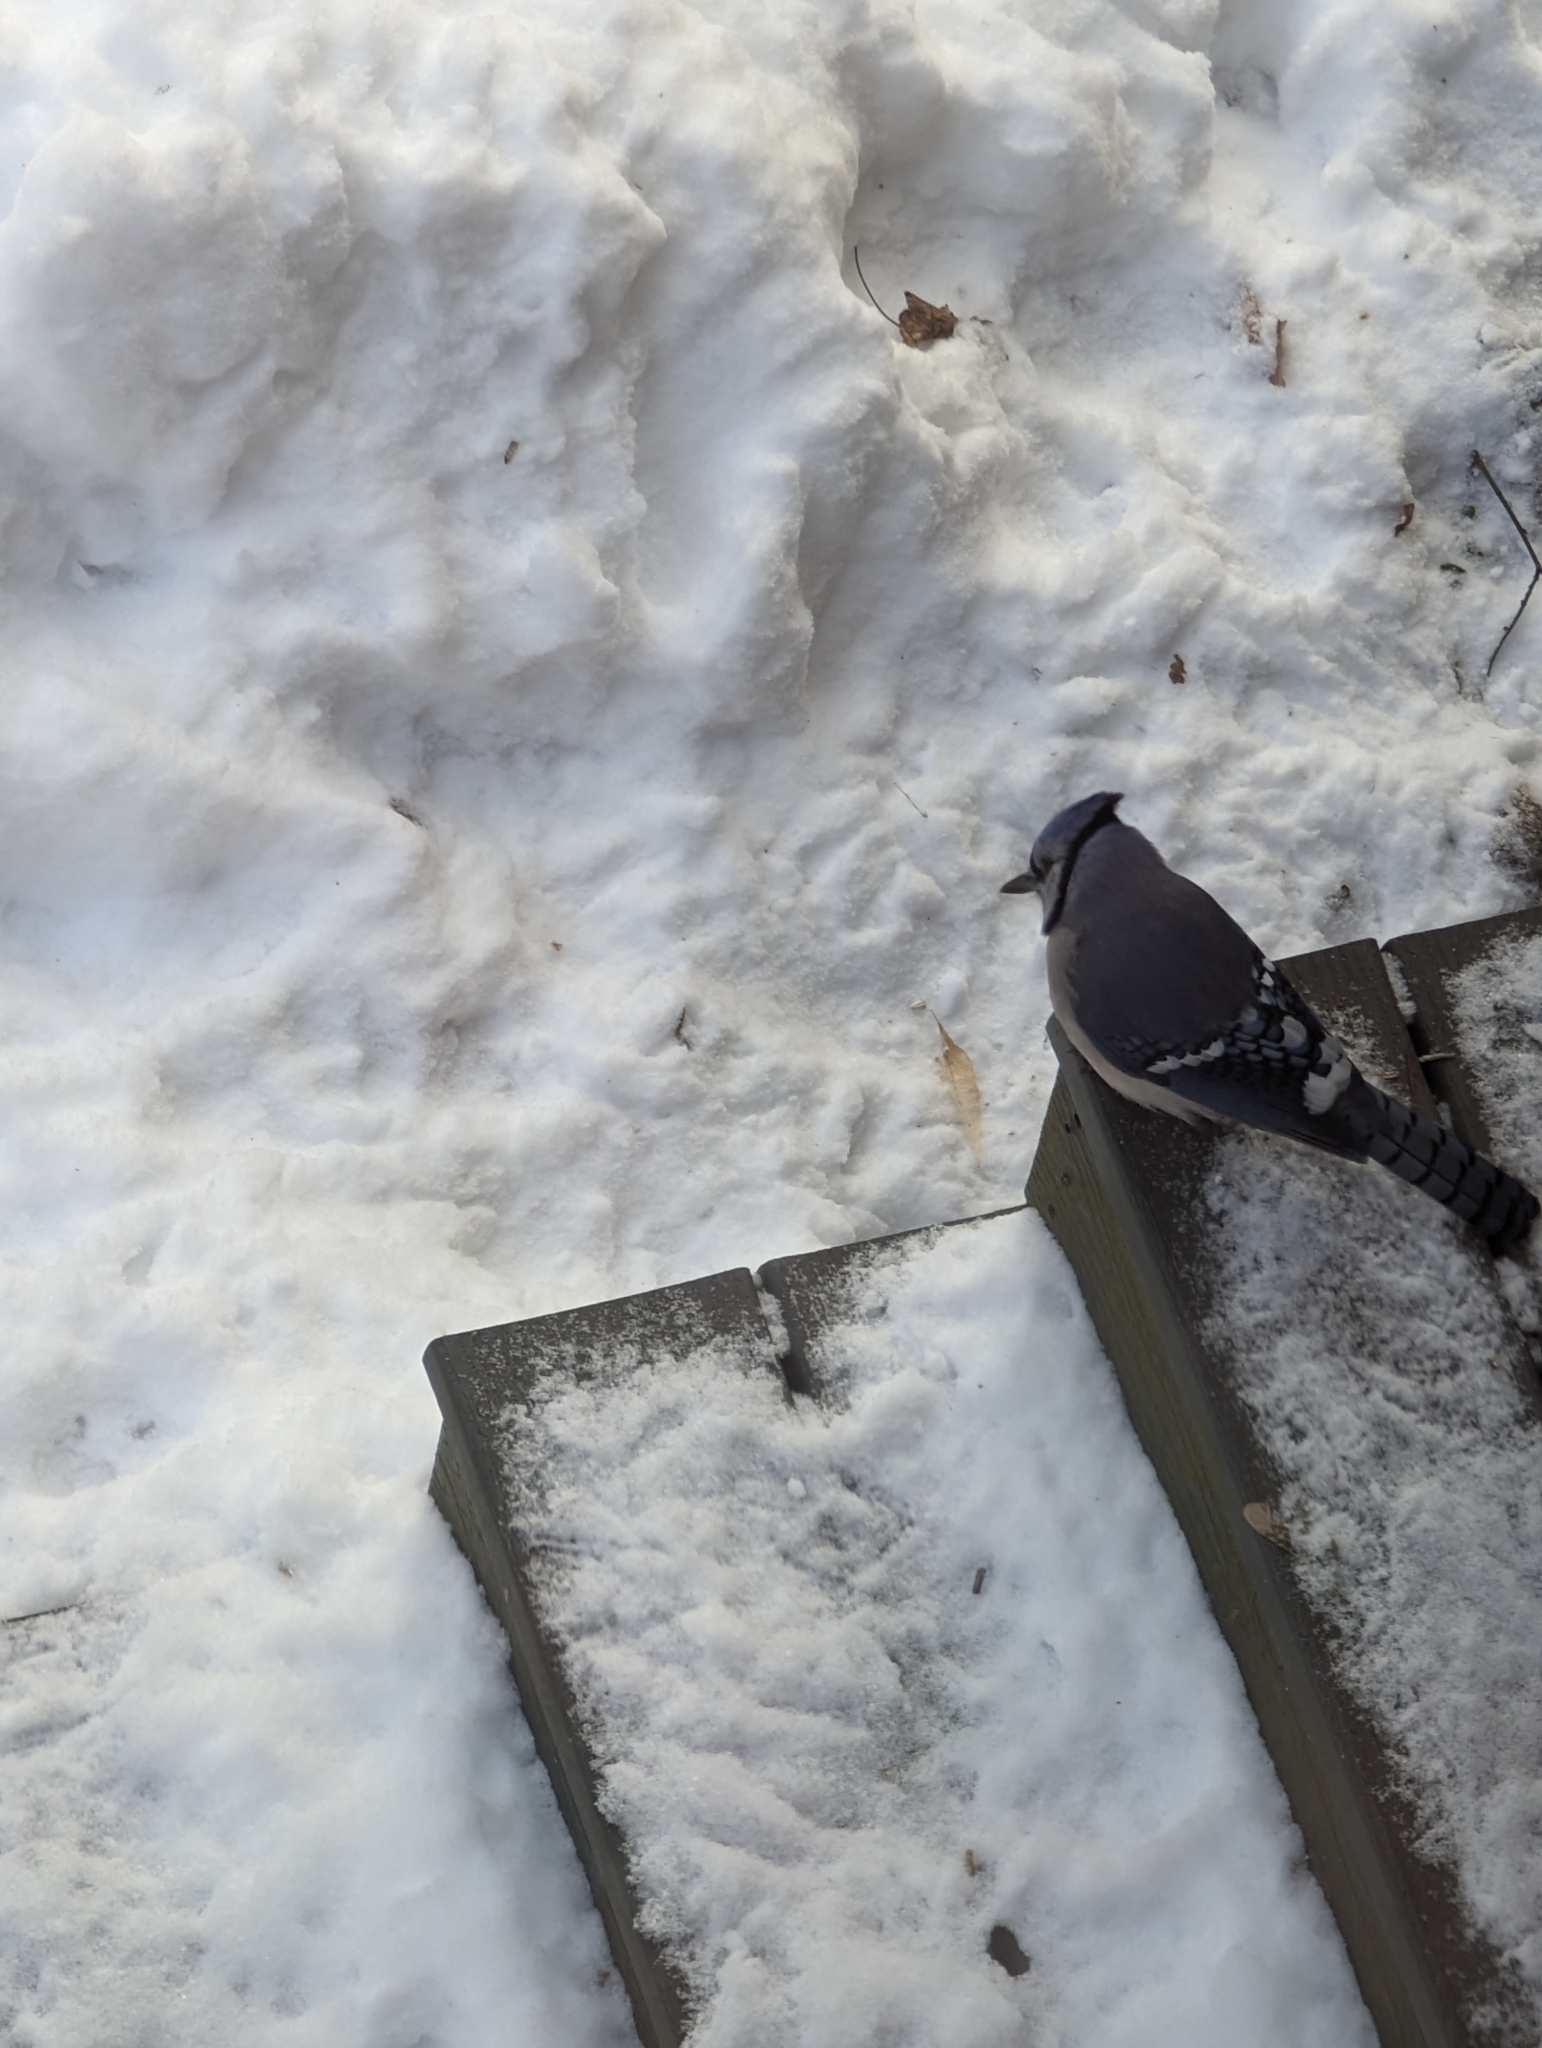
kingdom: Animalia
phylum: Chordata
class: Aves
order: Passeriformes
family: Corvidae
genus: Cyanocitta
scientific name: Cyanocitta cristata
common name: Blue jay
